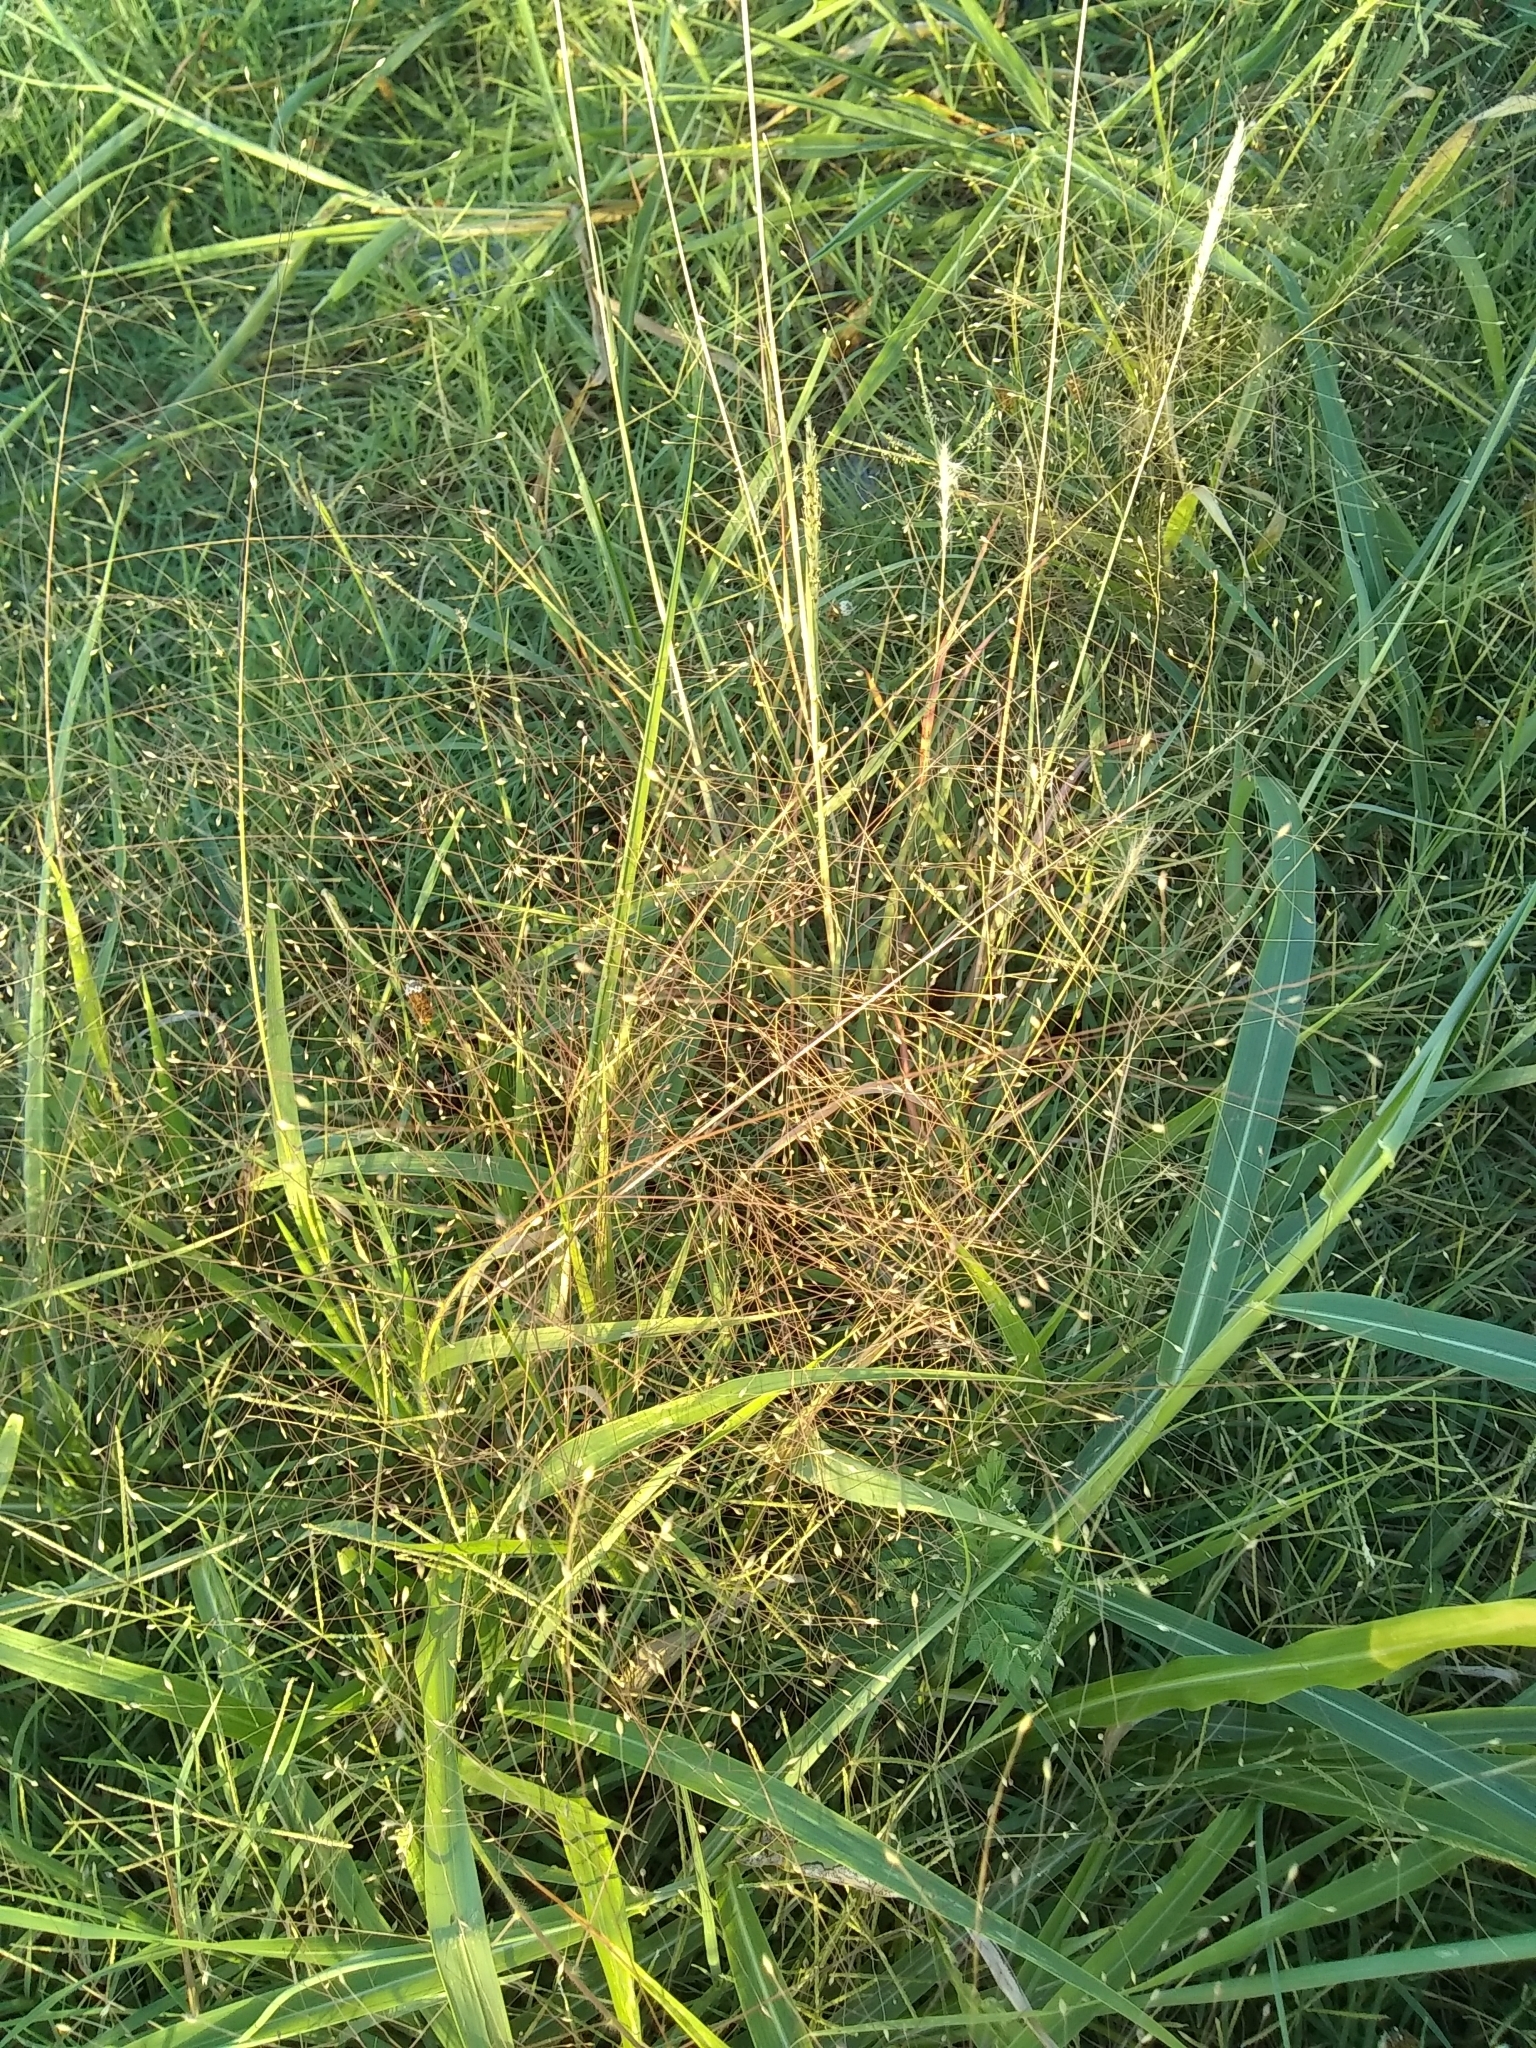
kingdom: Plantae
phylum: Tracheophyta
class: Liliopsida
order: Poales
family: Poaceae
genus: Panicum
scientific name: Panicum capillare
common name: Witch-grass
